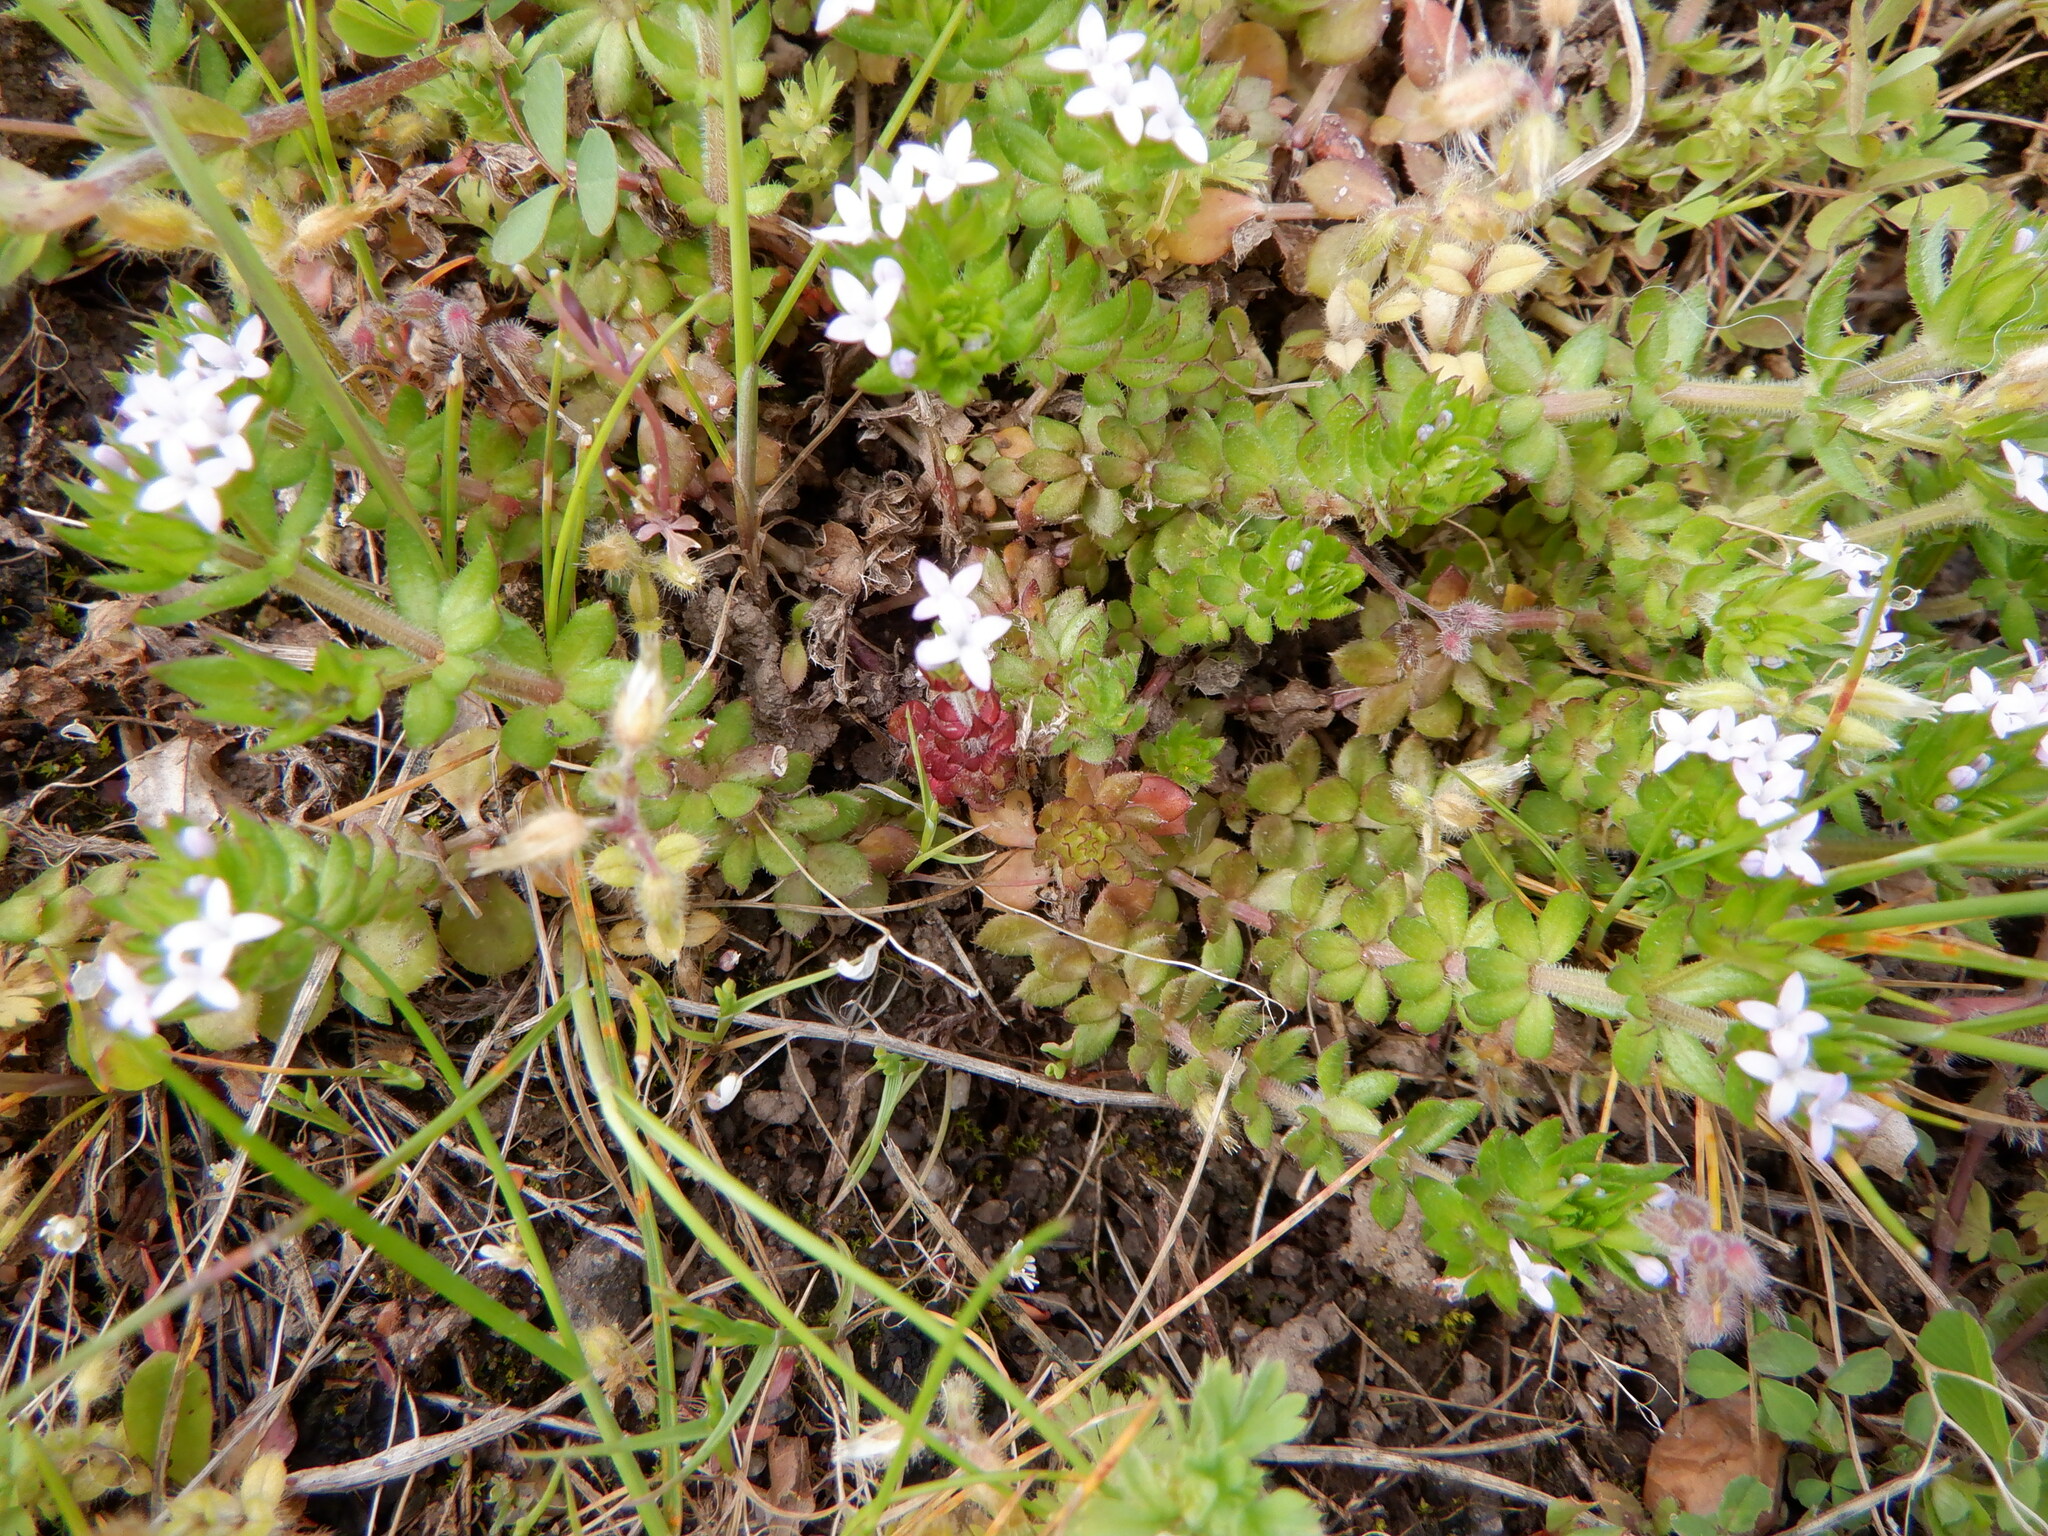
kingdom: Plantae
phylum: Tracheophyta
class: Magnoliopsida
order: Gentianales
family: Rubiaceae
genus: Sherardia
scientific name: Sherardia arvensis
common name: Field madder
